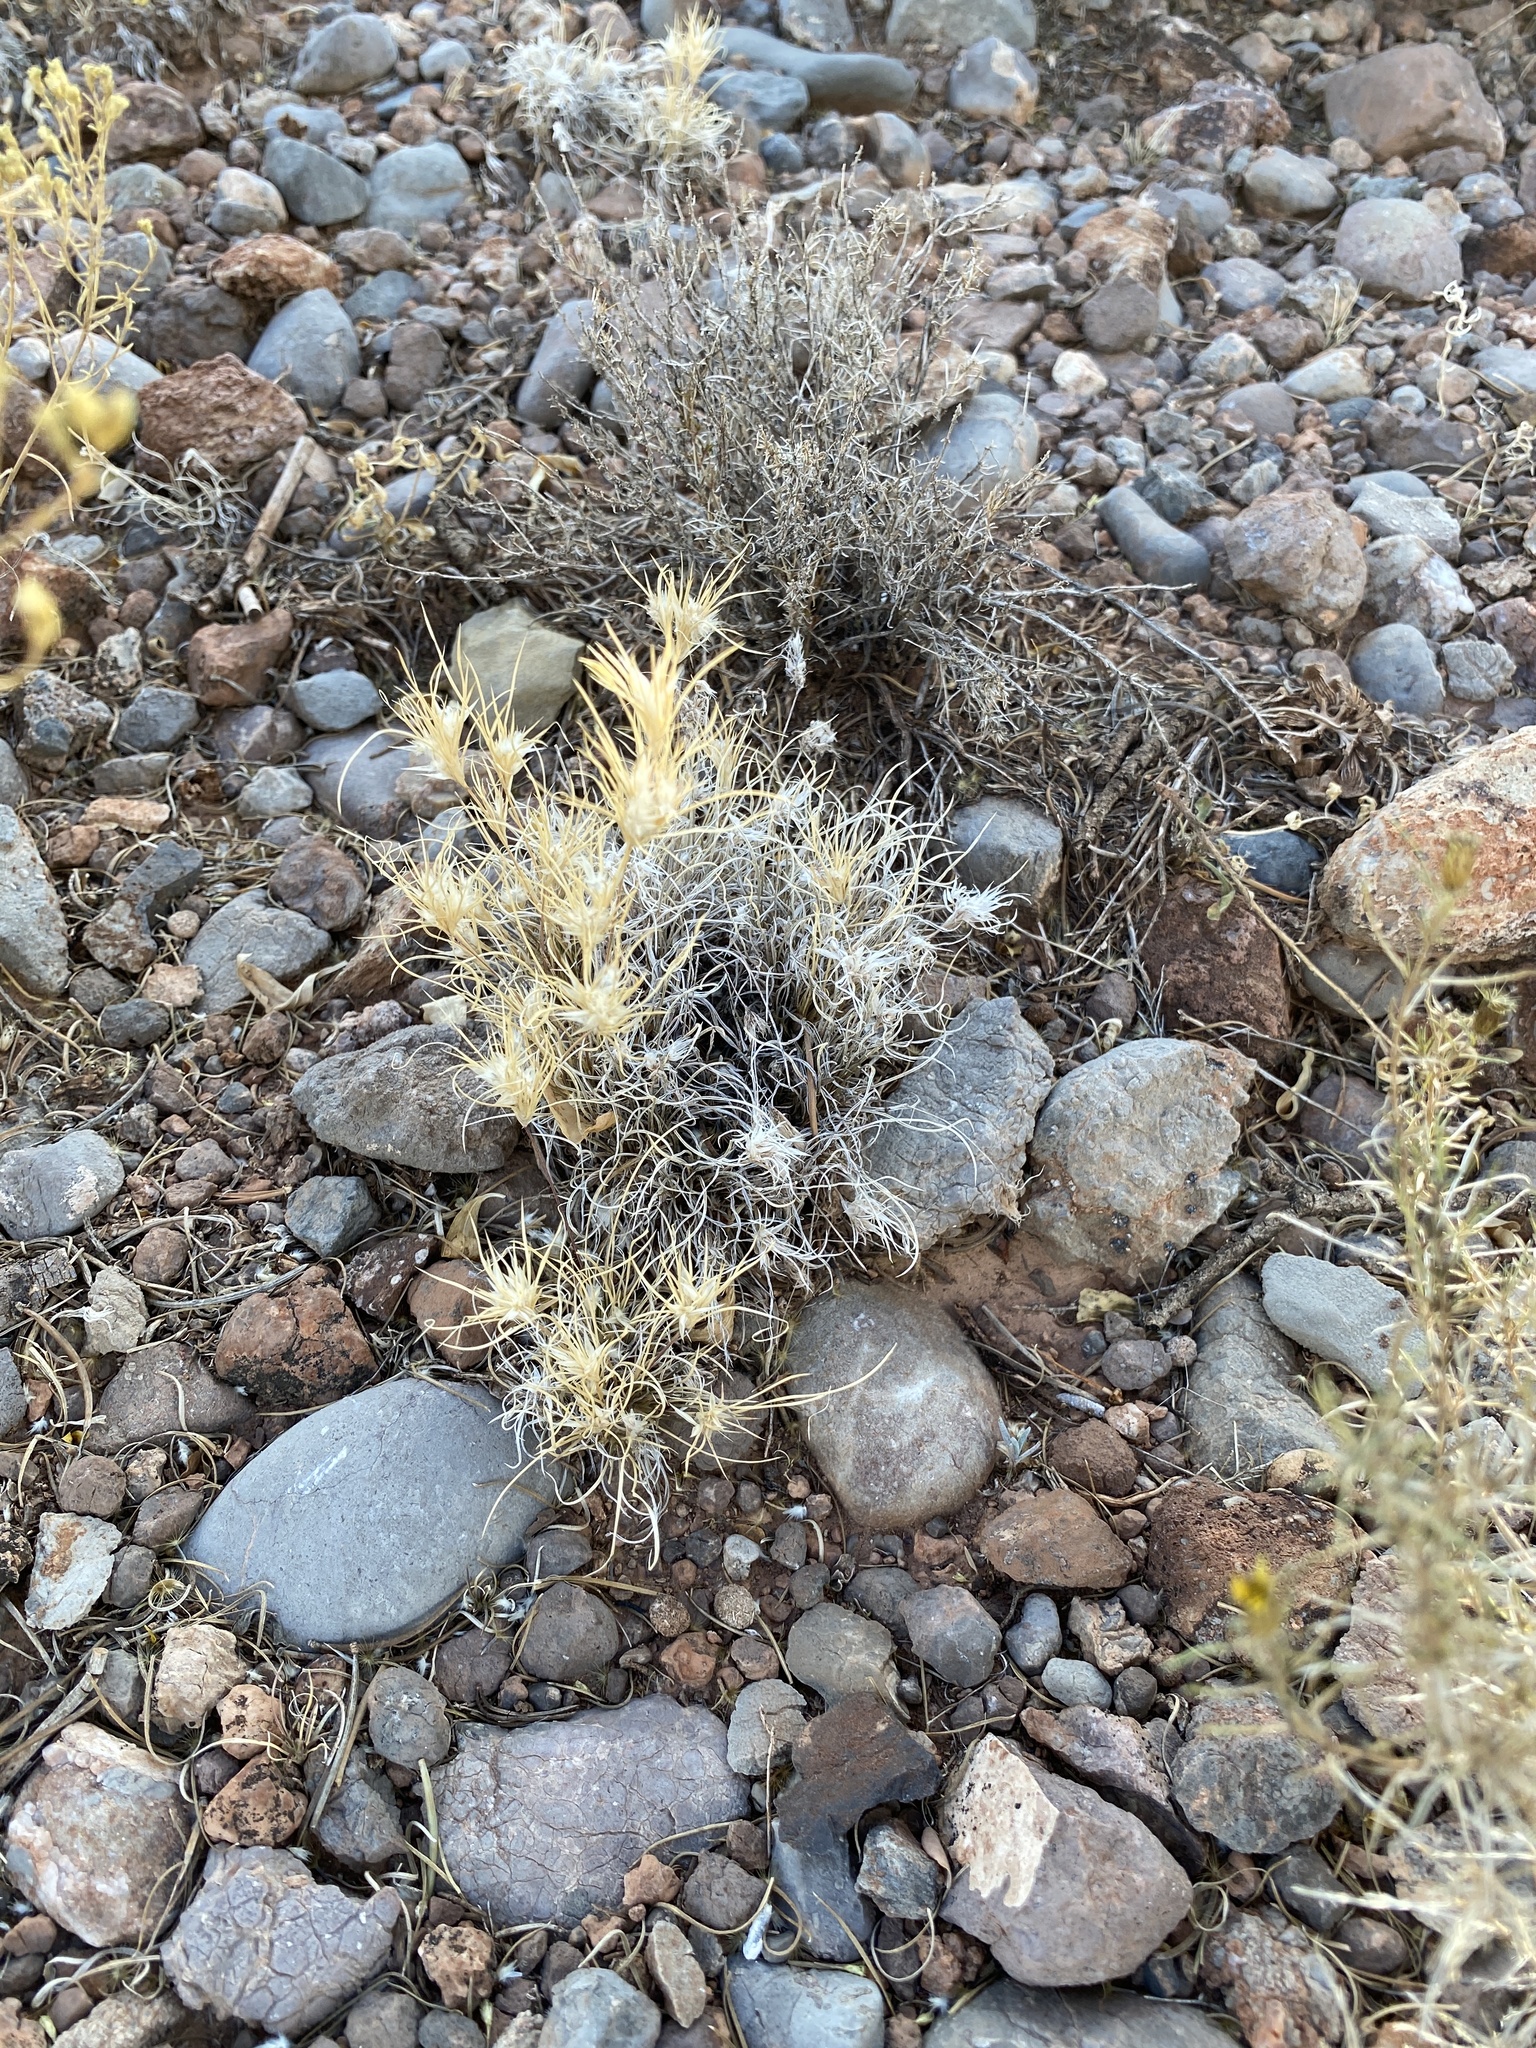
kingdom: Plantae
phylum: Tracheophyta
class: Liliopsida
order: Poales
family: Poaceae
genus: Dasyochloa
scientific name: Dasyochloa pulchella
